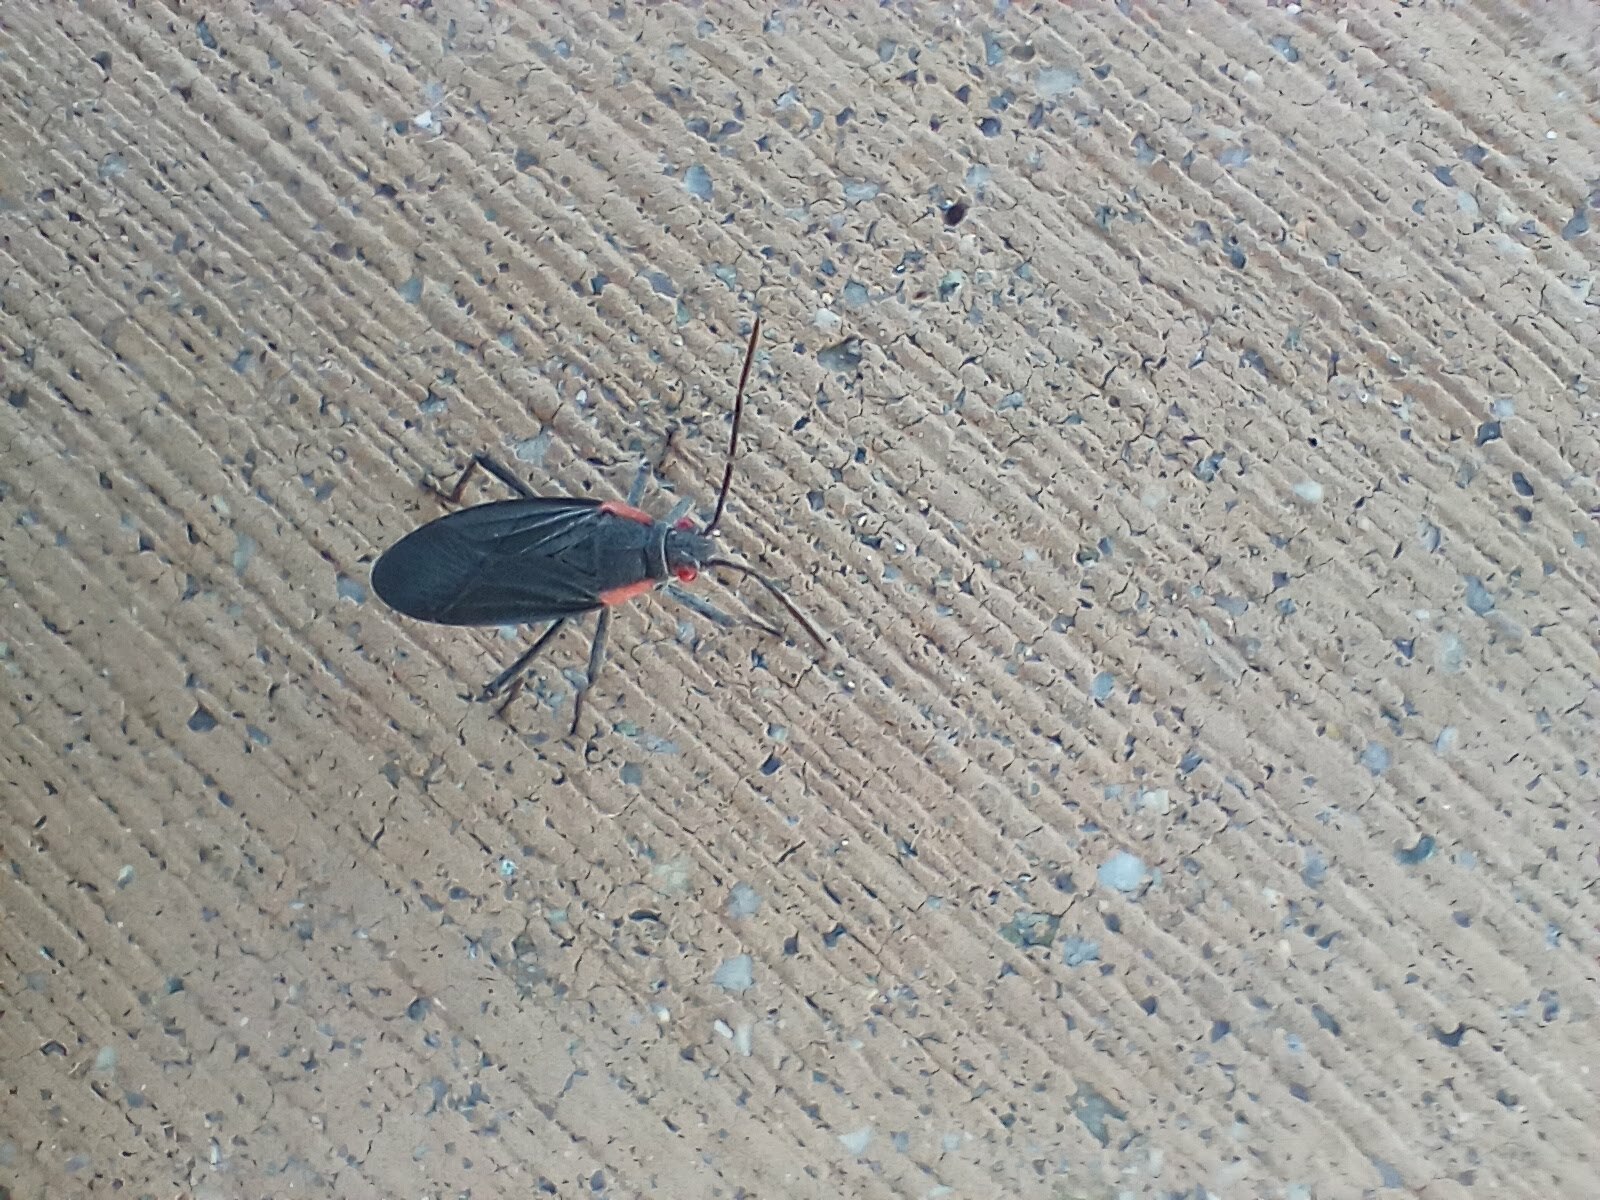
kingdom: Animalia
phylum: Arthropoda
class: Insecta
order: Hemiptera
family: Rhopalidae
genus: Jadera
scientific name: Jadera haematoloma
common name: Red-shouldered bug
